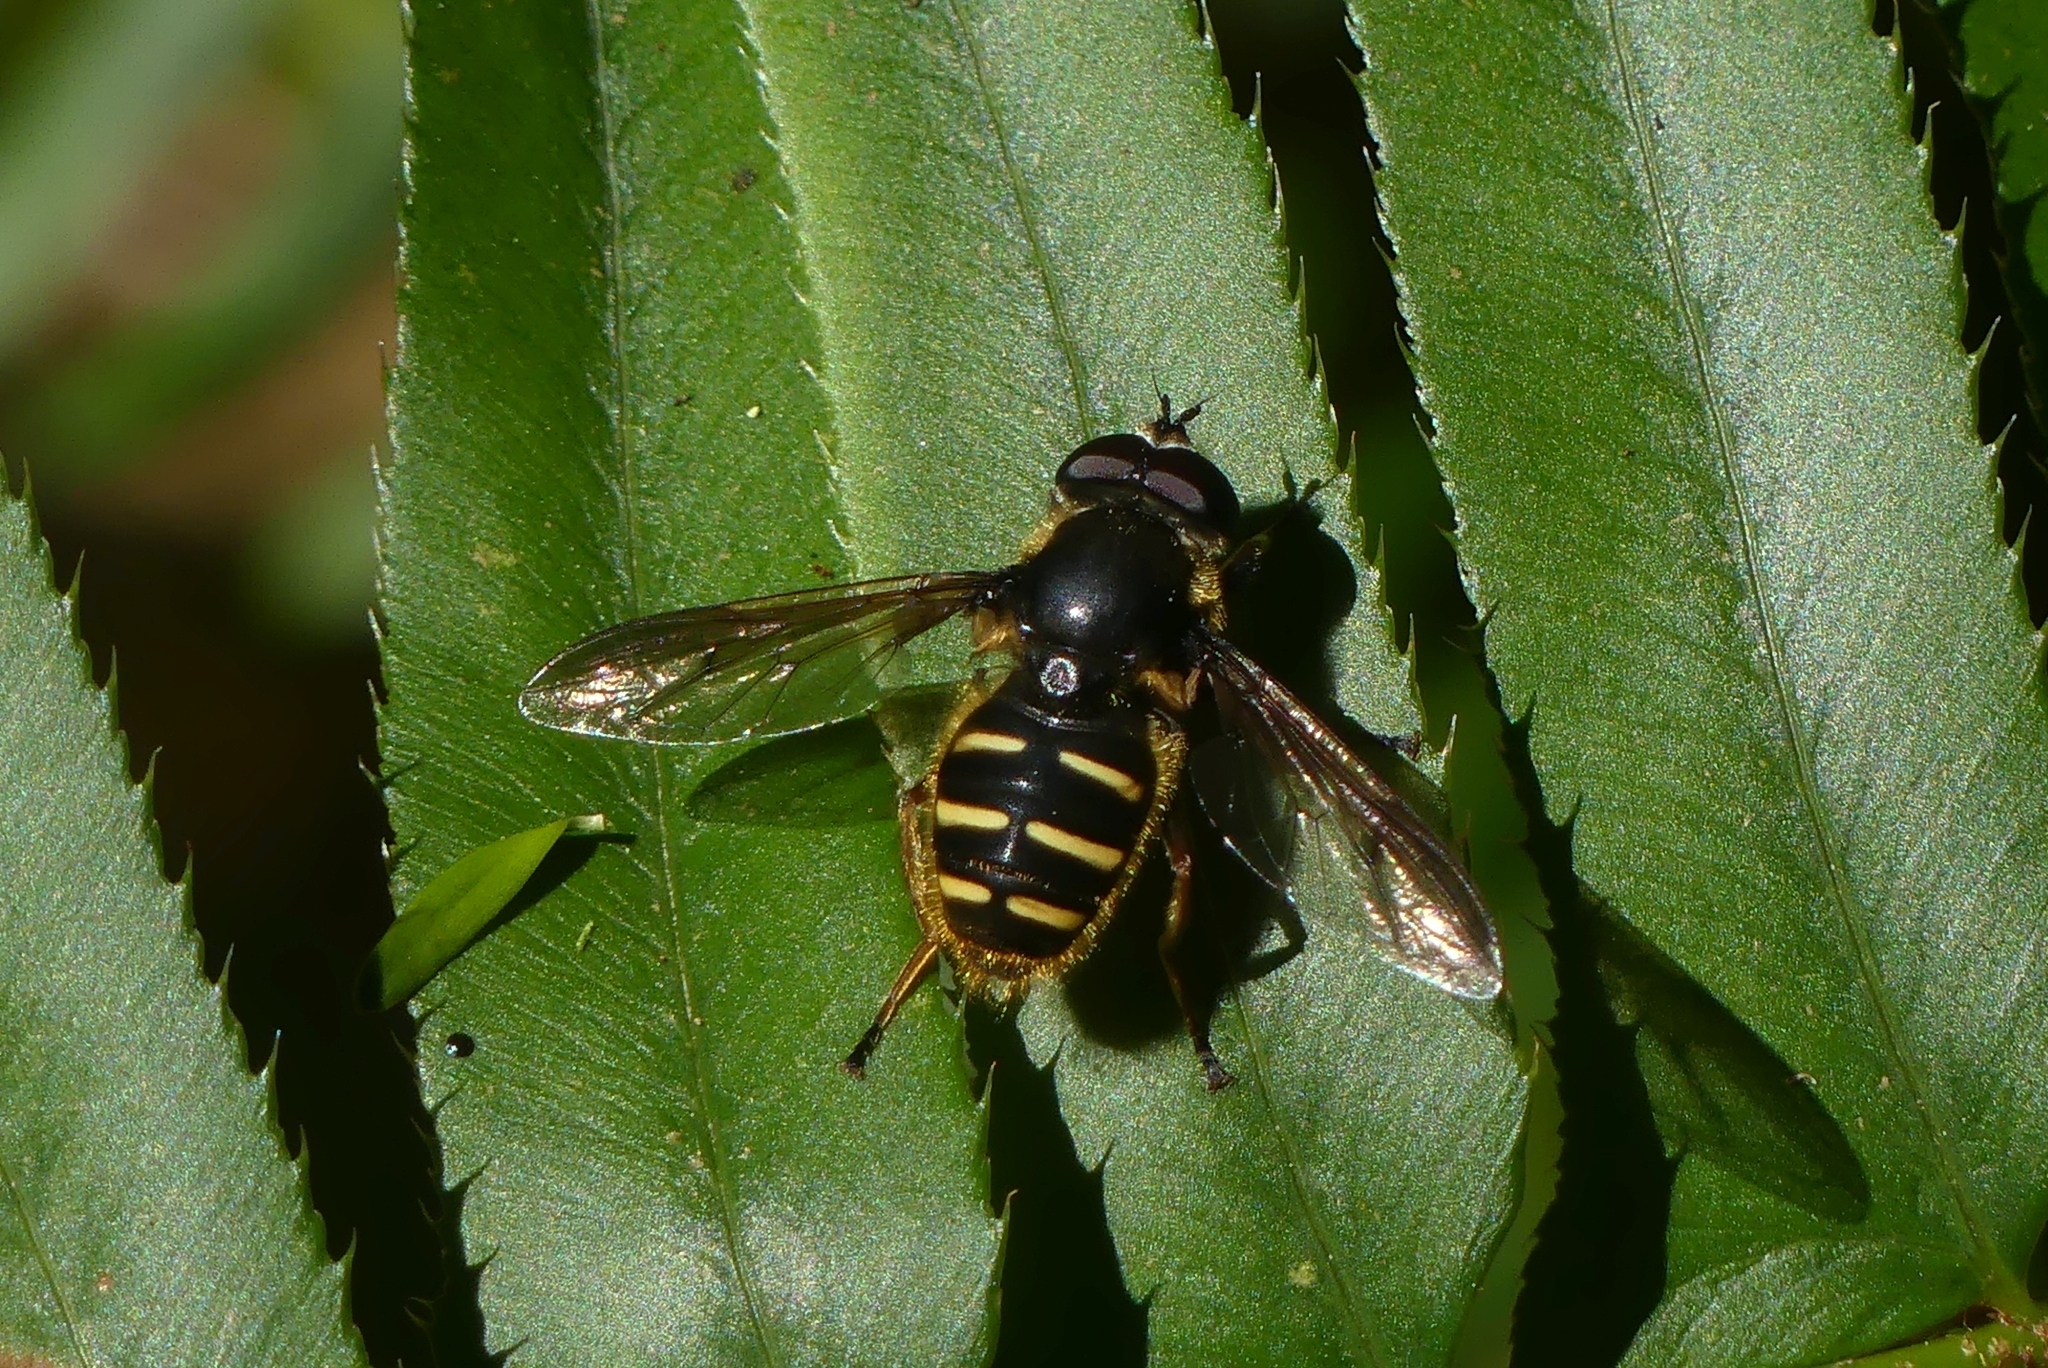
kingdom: Animalia
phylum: Arthropoda
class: Insecta
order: Diptera
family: Syrphidae
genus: Sericomyia
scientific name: Sericomyia chalcopyga
